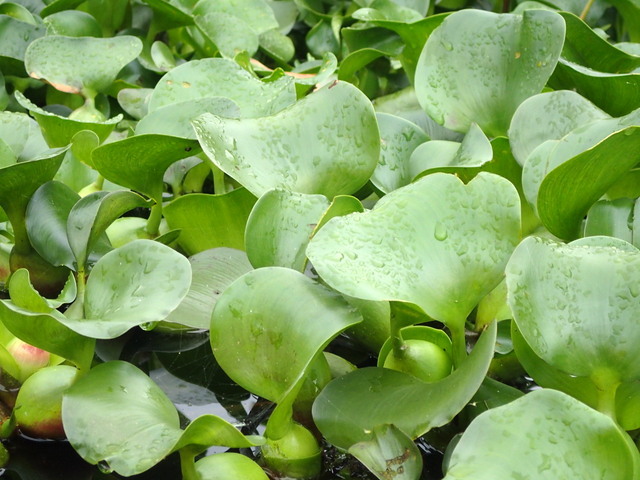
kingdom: Plantae
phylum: Tracheophyta
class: Liliopsida
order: Commelinales
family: Pontederiaceae
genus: Pontederia
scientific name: Pontederia crassipes
